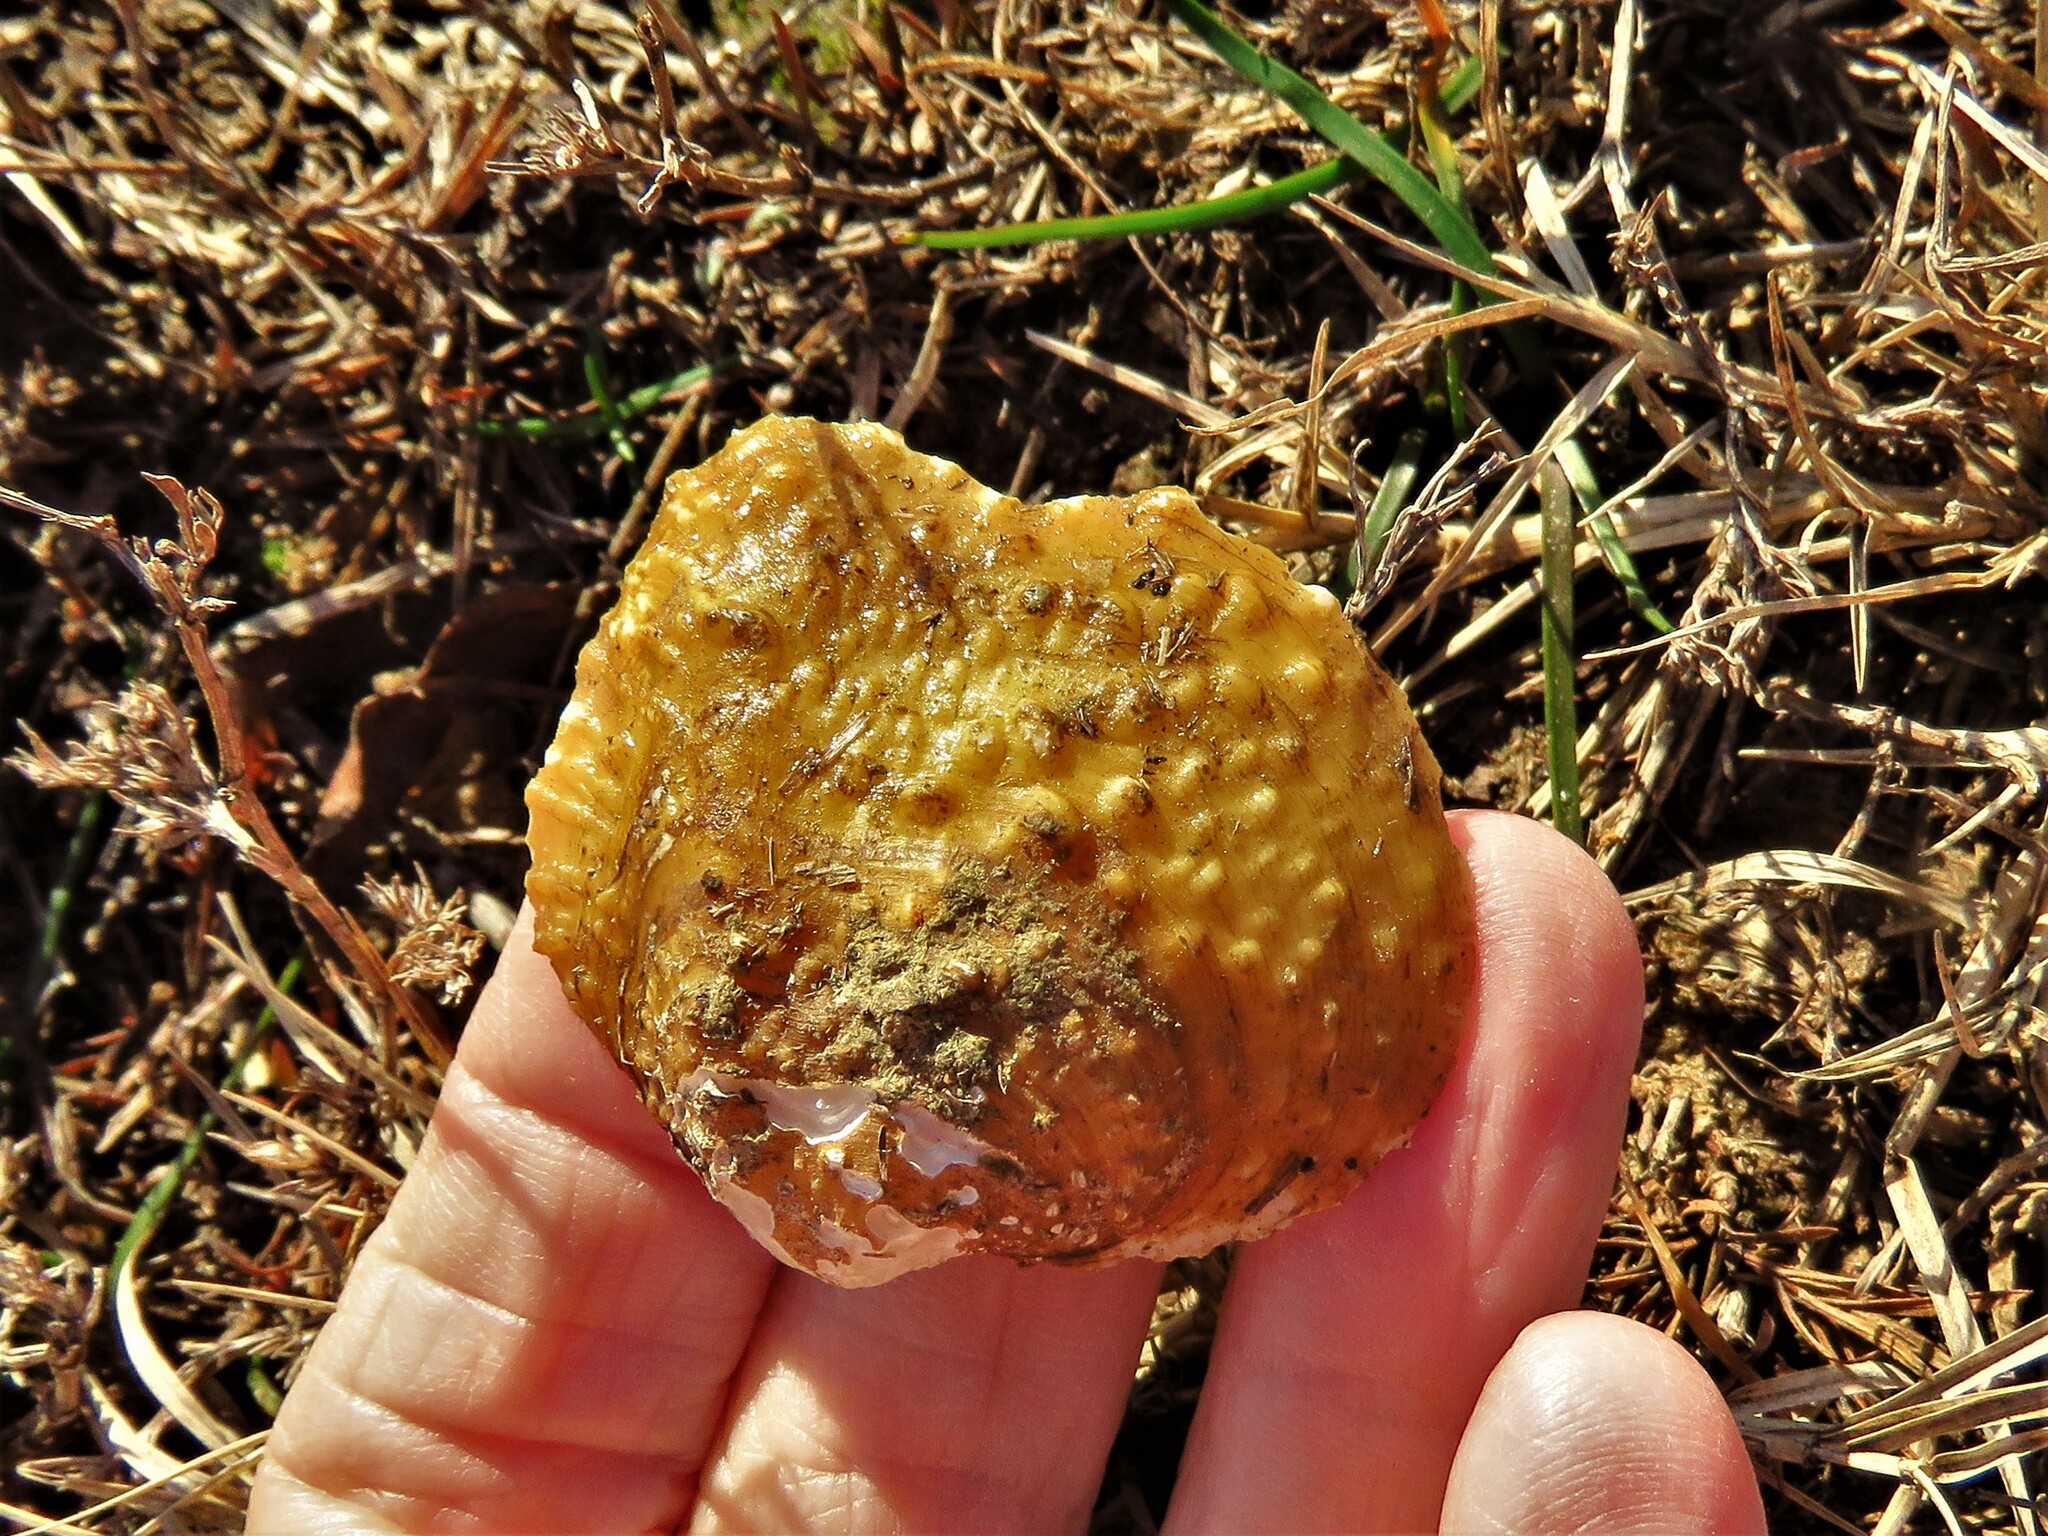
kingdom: Animalia
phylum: Mollusca
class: Bivalvia
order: Unionida
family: Unionidae
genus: Quadrula
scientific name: Quadrula quadrula
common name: Mapleleaf
